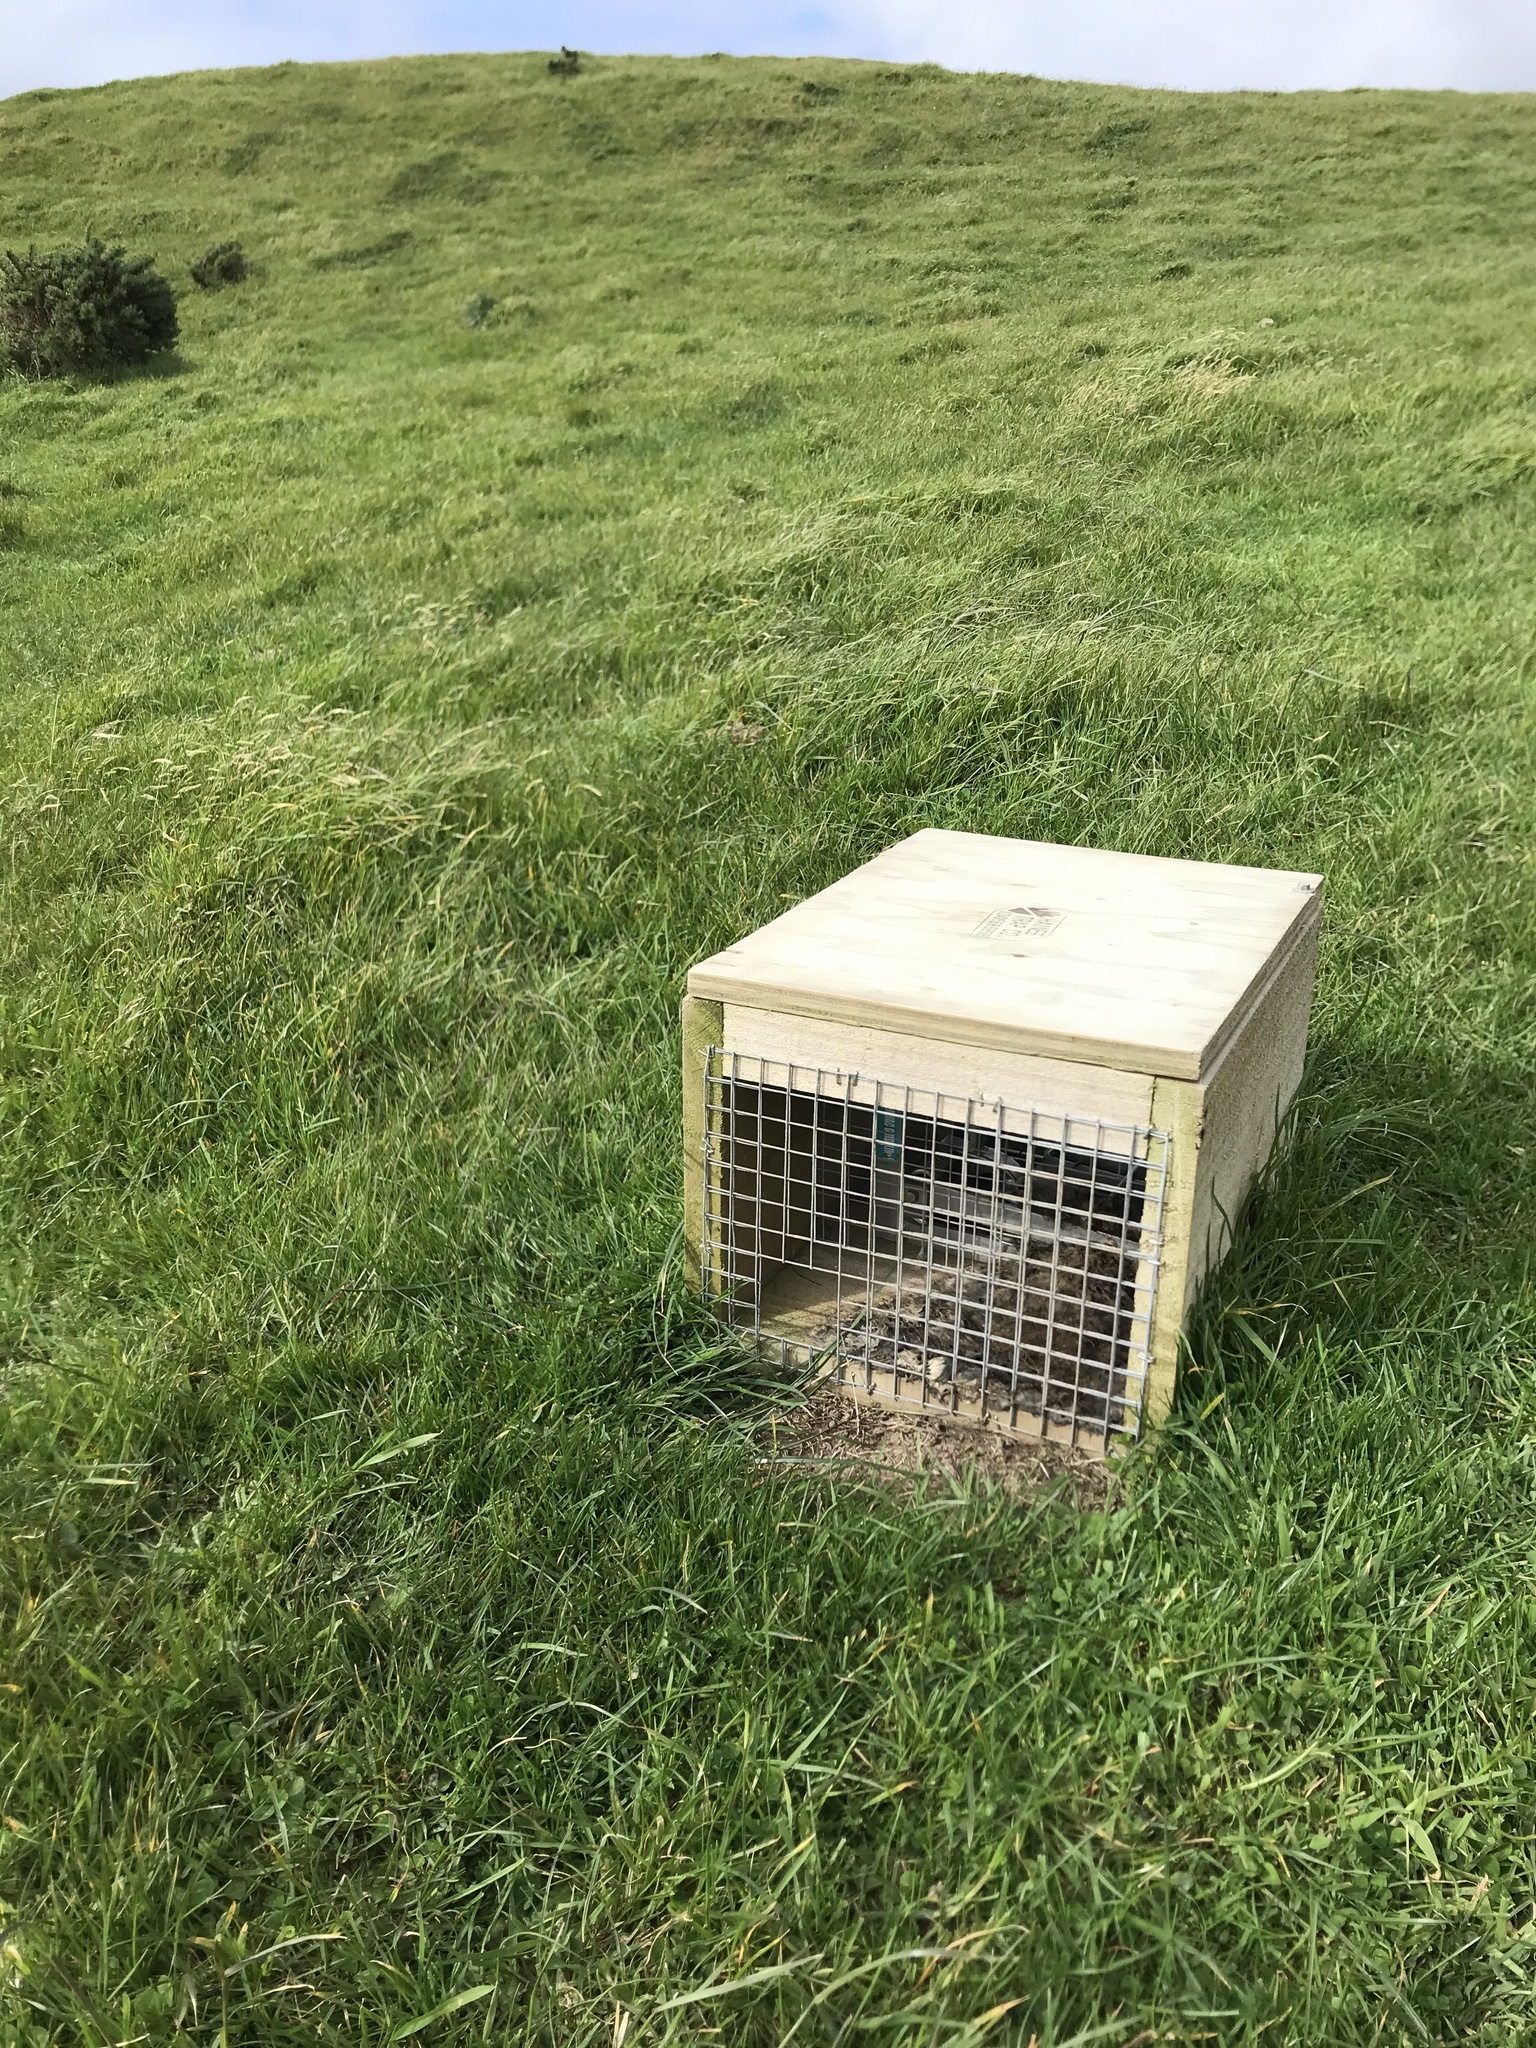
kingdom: Animalia
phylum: Chordata
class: Mammalia
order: Lagomorpha
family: Leporidae
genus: Oryctolagus
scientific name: Oryctolagus cuniculus
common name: European rabbit
